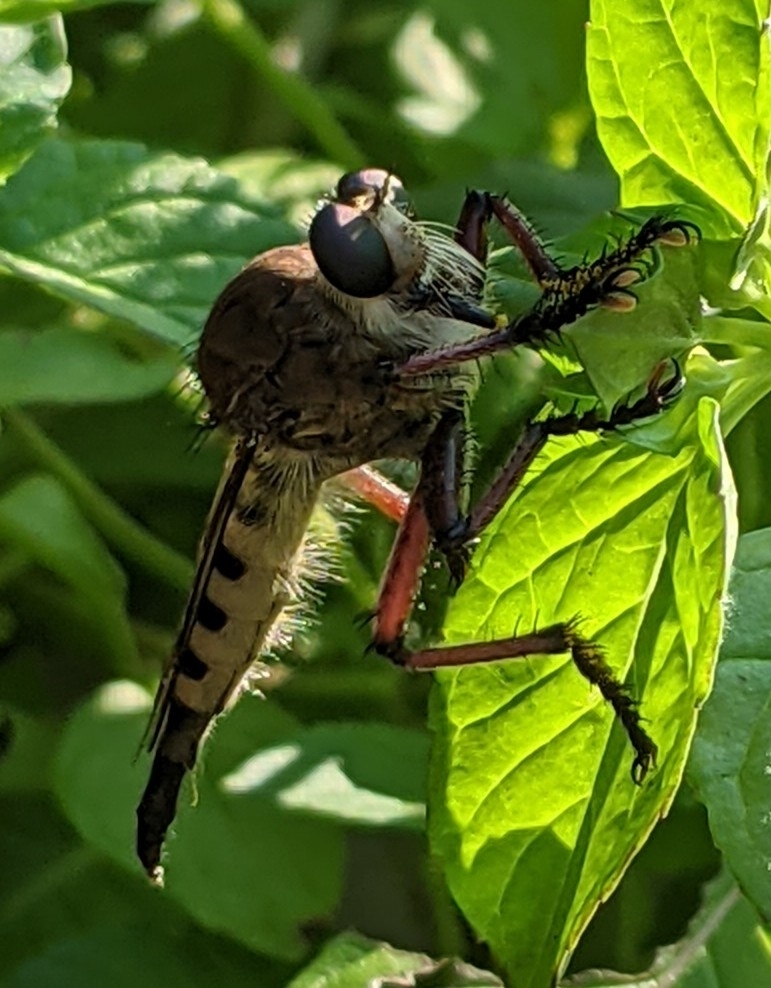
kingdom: Animalia
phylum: Arthropoda
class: Insecta
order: Diptera
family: Asilidae
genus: Promachus
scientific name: Promachus hinei
